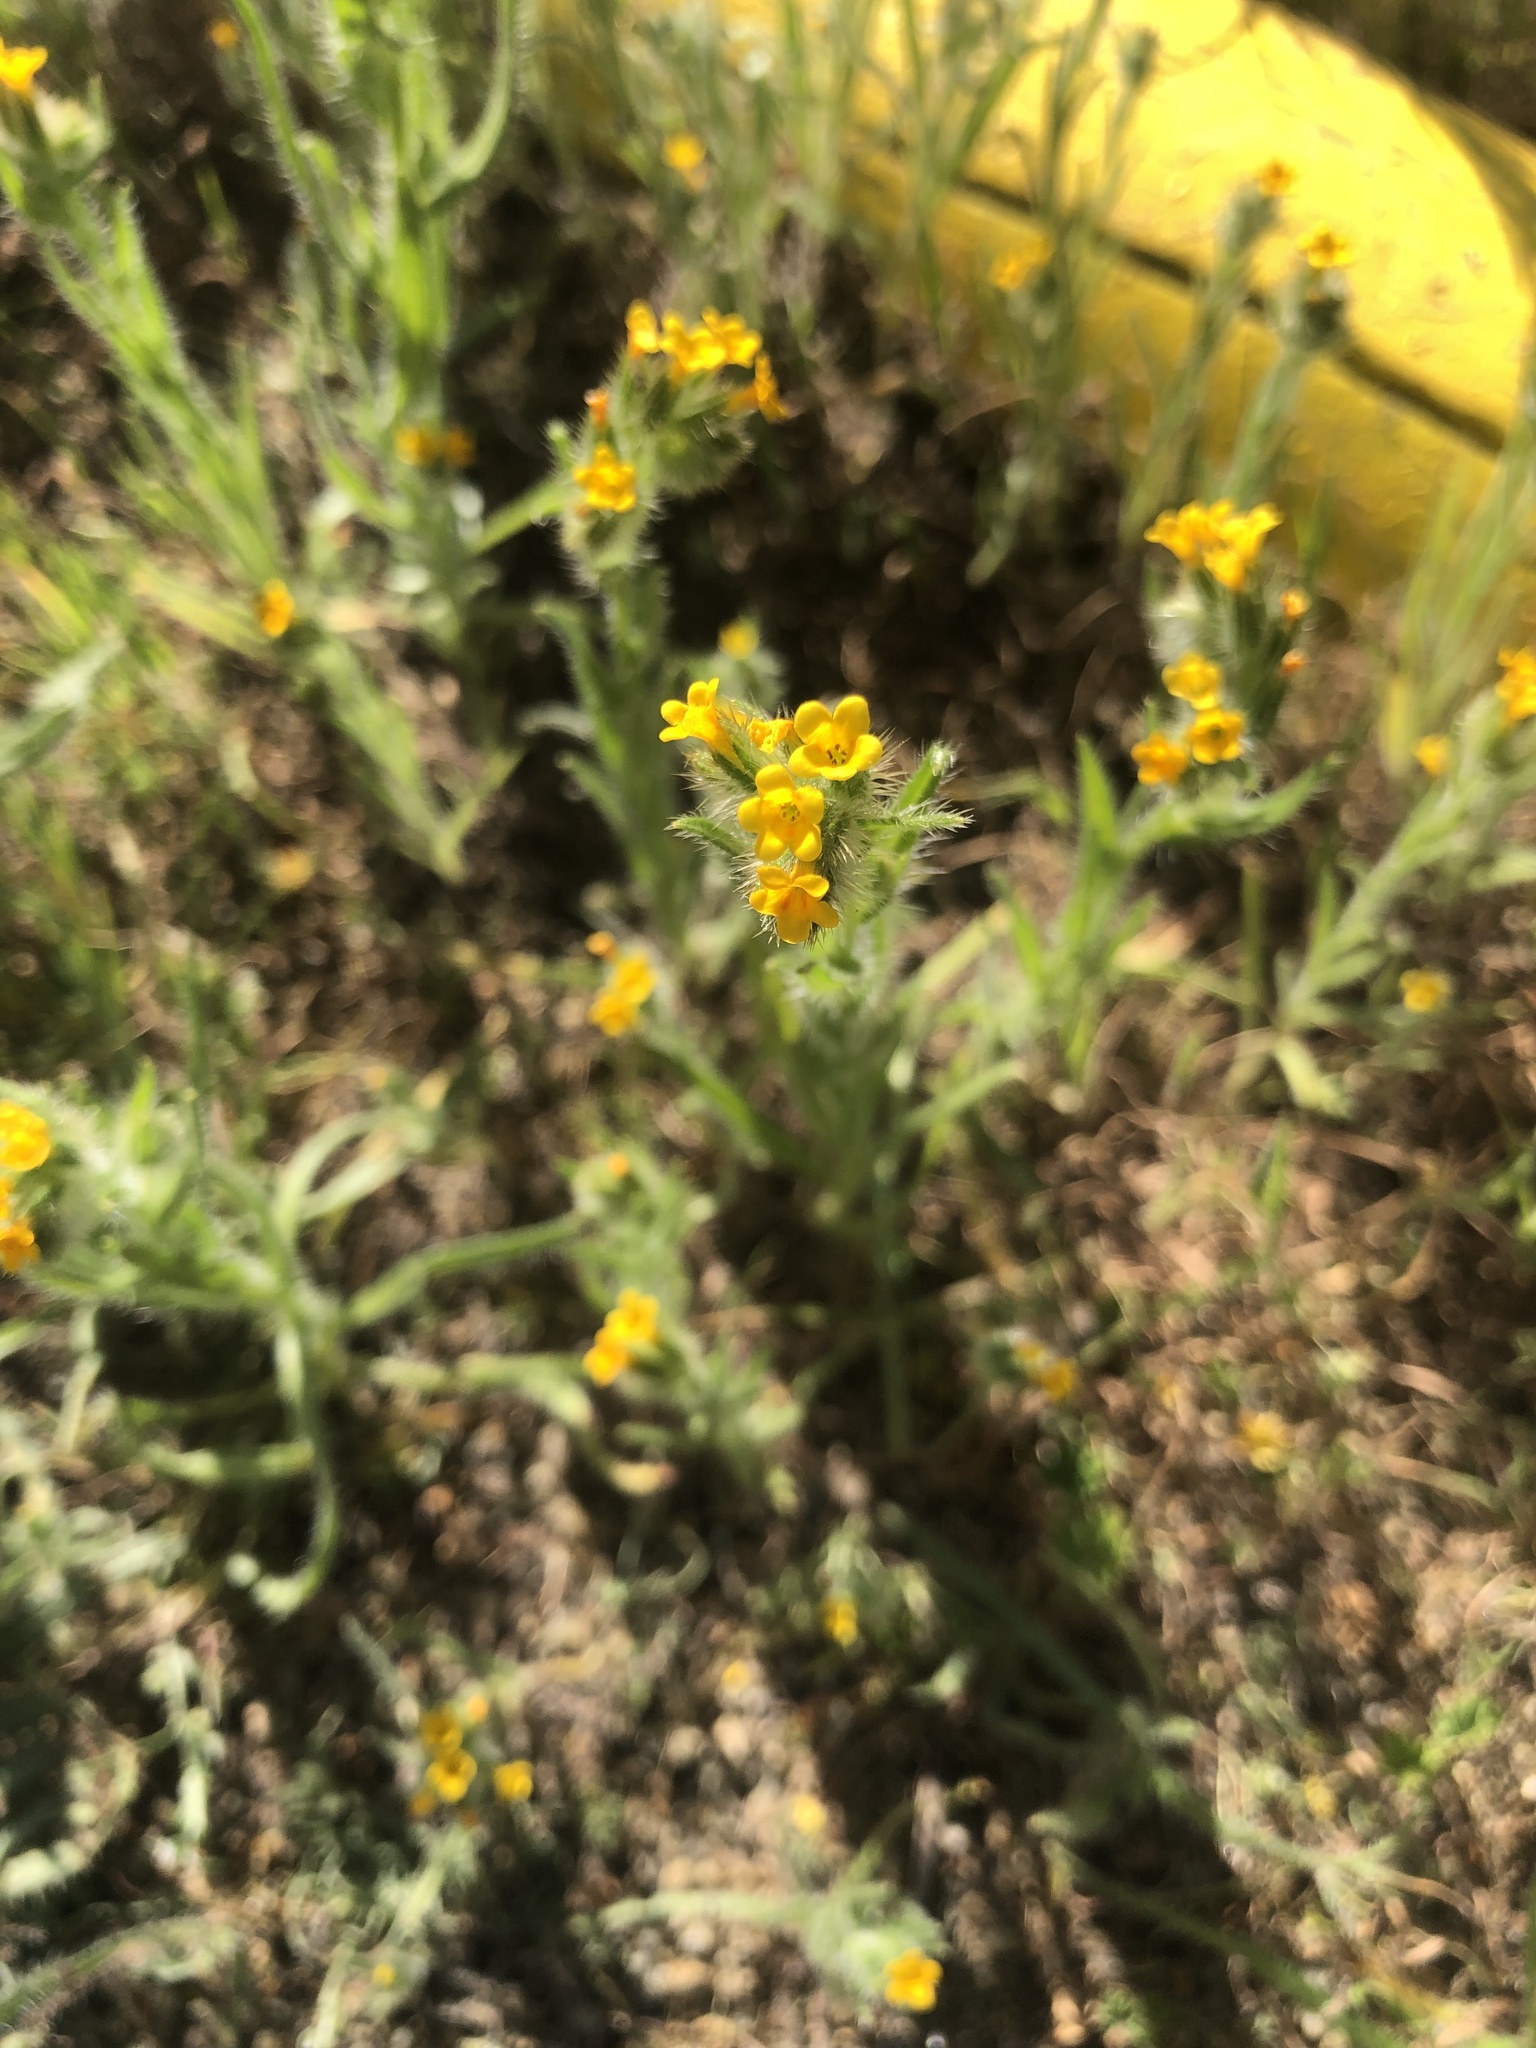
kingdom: Plantae
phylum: Tracheophyta
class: Magnoliopsida
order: Boraginales
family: Boraginaceae
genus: Amsinckia
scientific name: Amsinckia calycina
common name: Hairy fiddleneck
